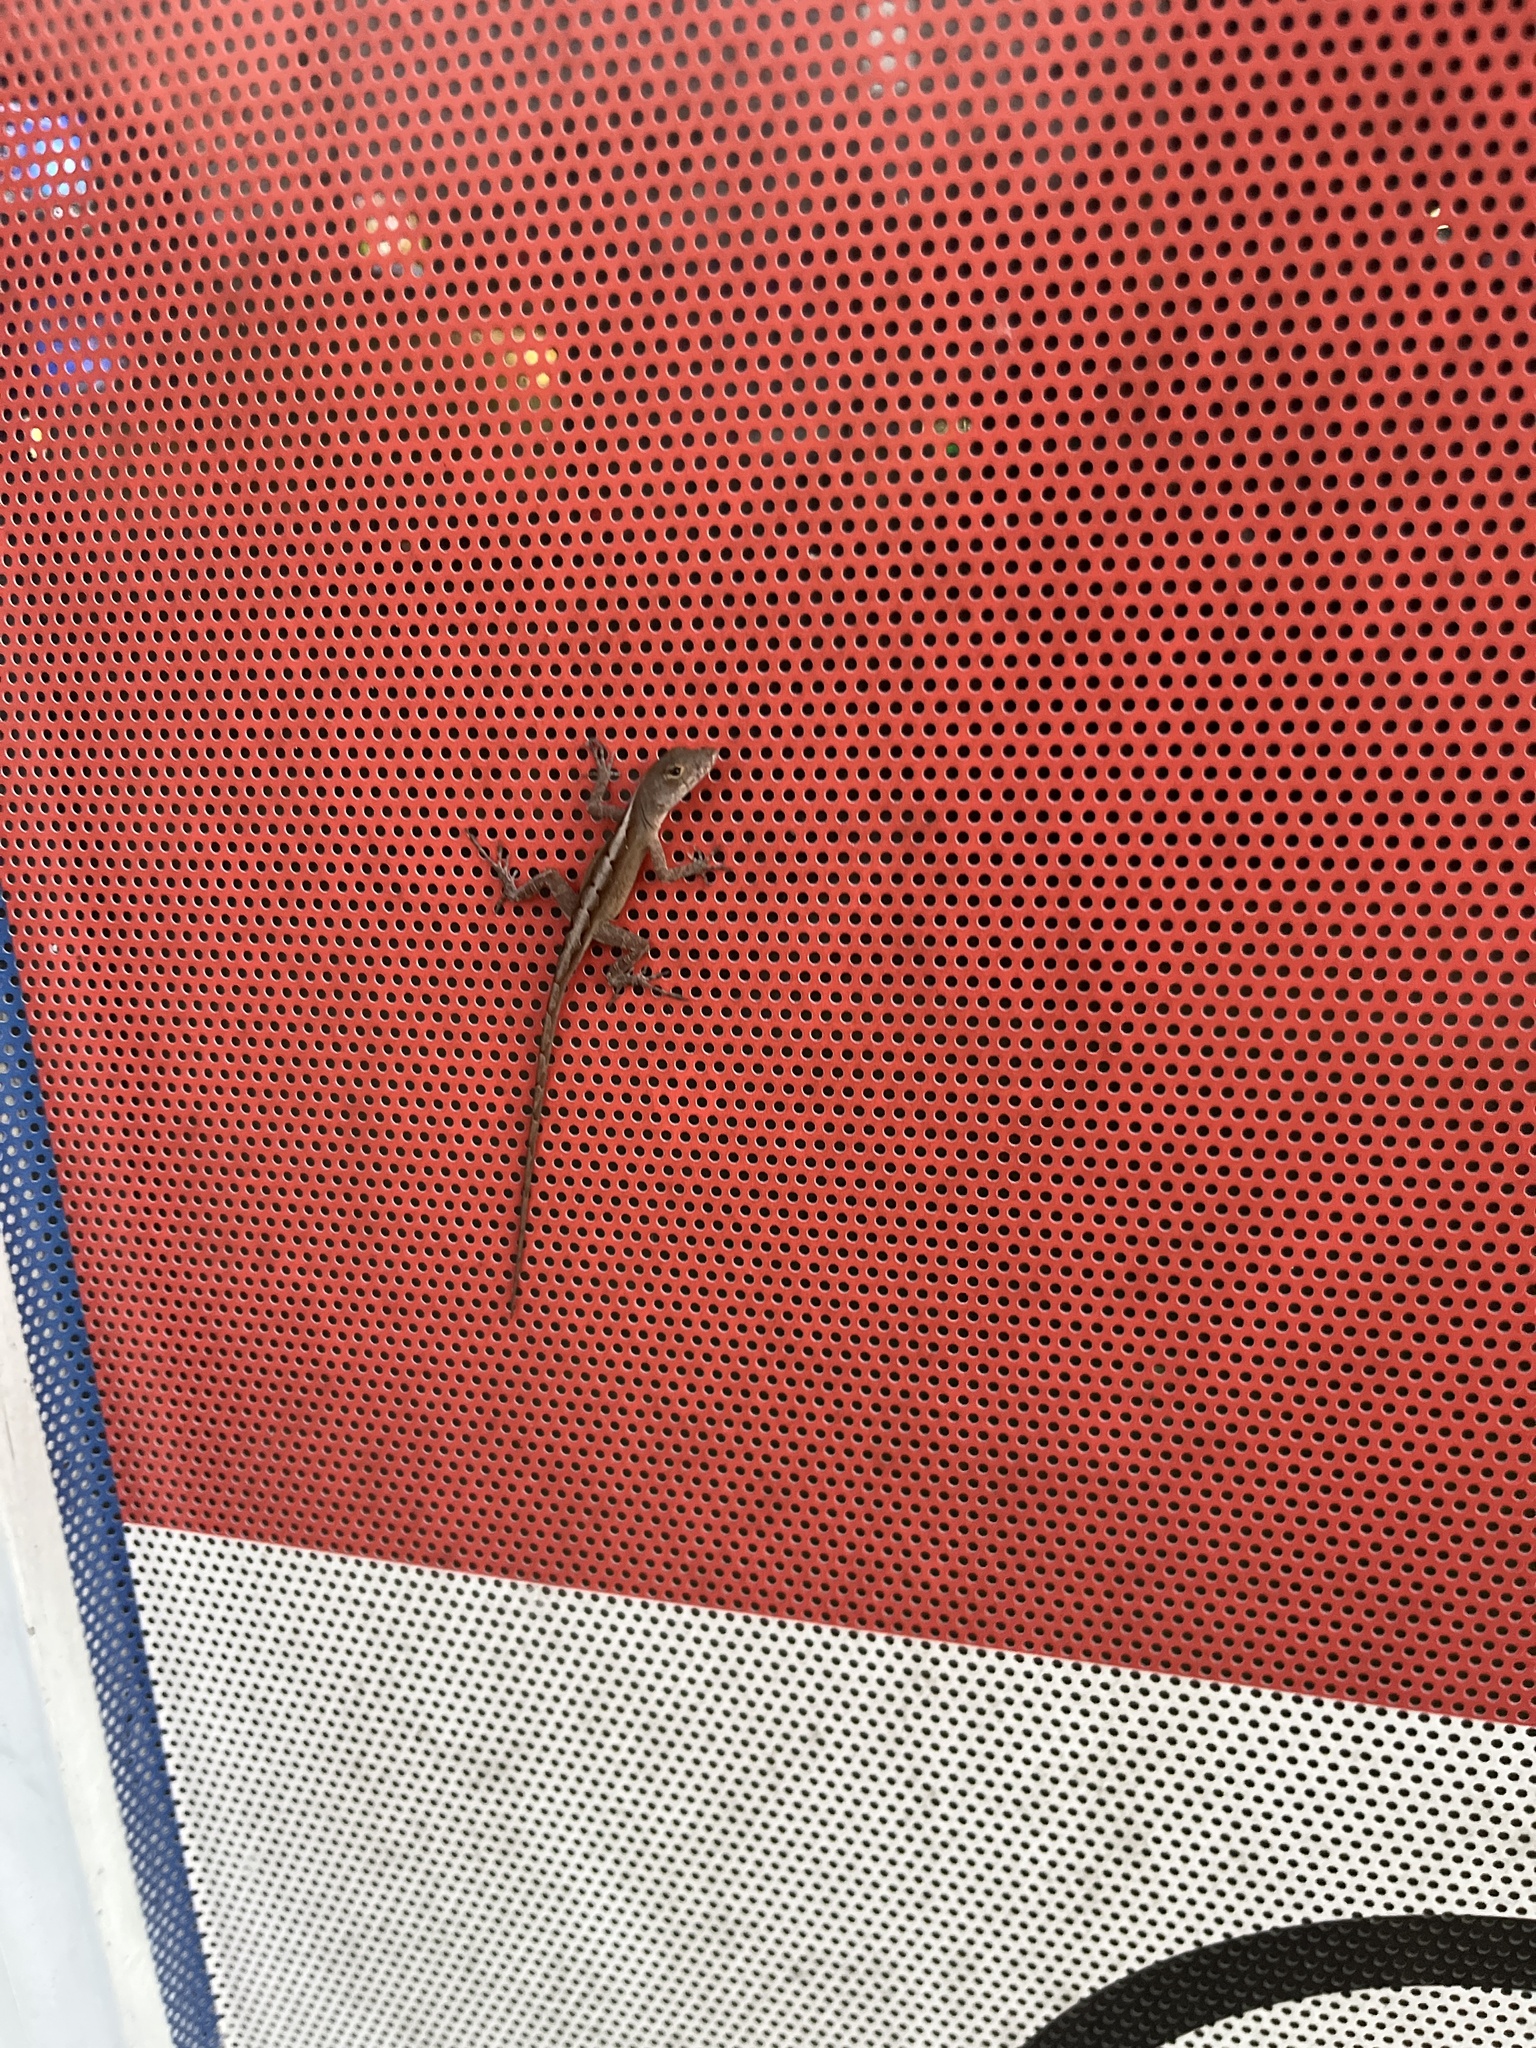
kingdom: Animalia
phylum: Chordata
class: Squamata
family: Dactyloidae
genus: Anolis
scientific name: Anolis sagrei
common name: Brown anole
